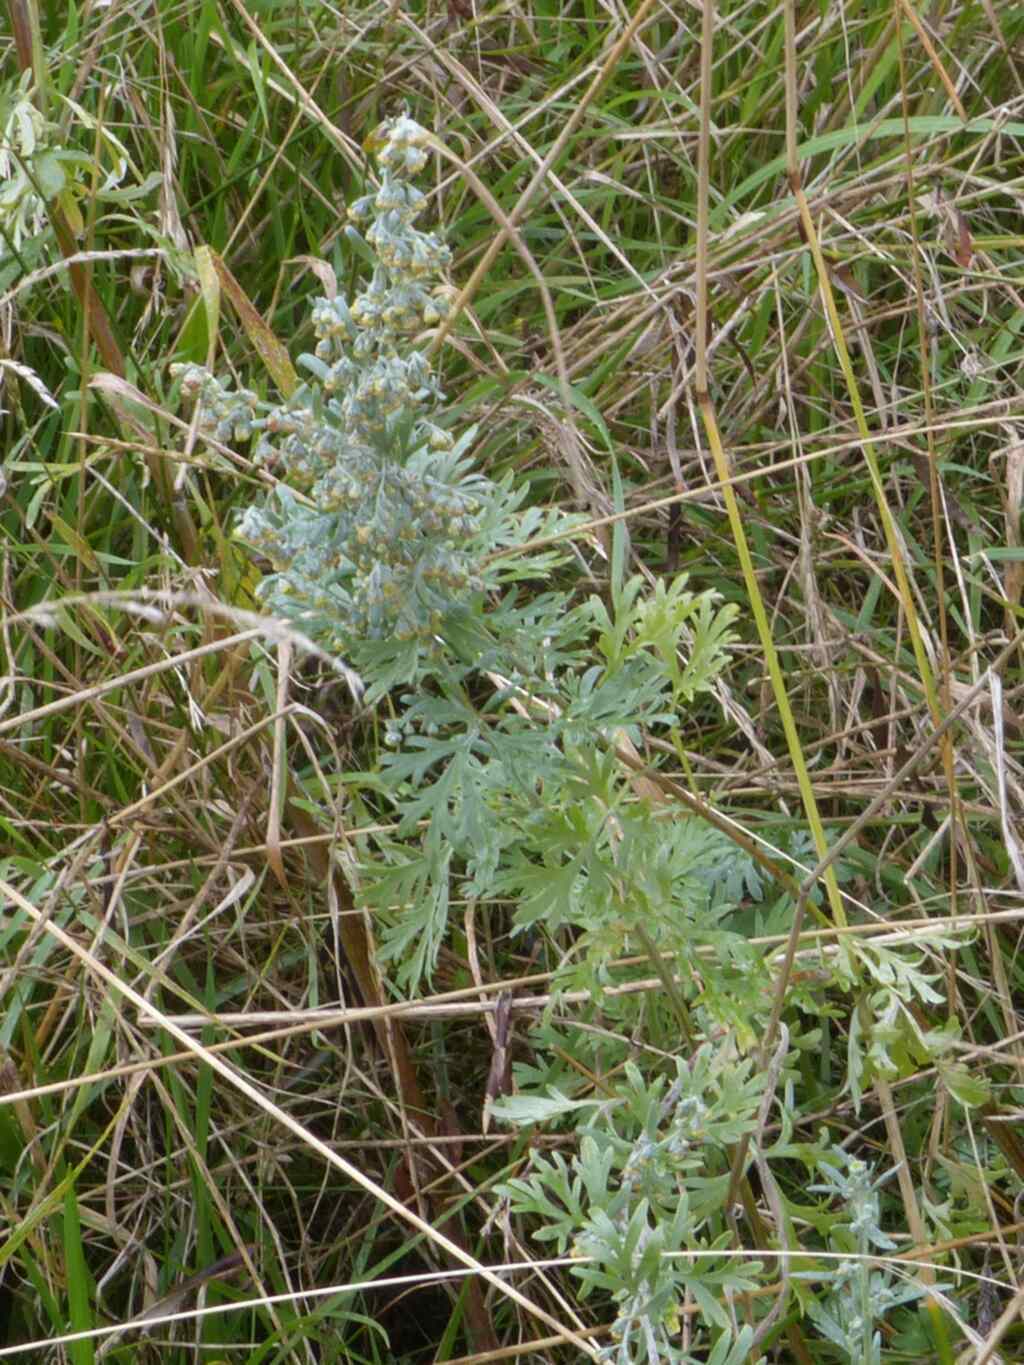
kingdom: Plantae
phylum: Tracheophyta
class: Magnoliopsida
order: Asterales
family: Asteraceae
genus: Artemisia
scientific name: Artemisia absinthium
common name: Wormwood
